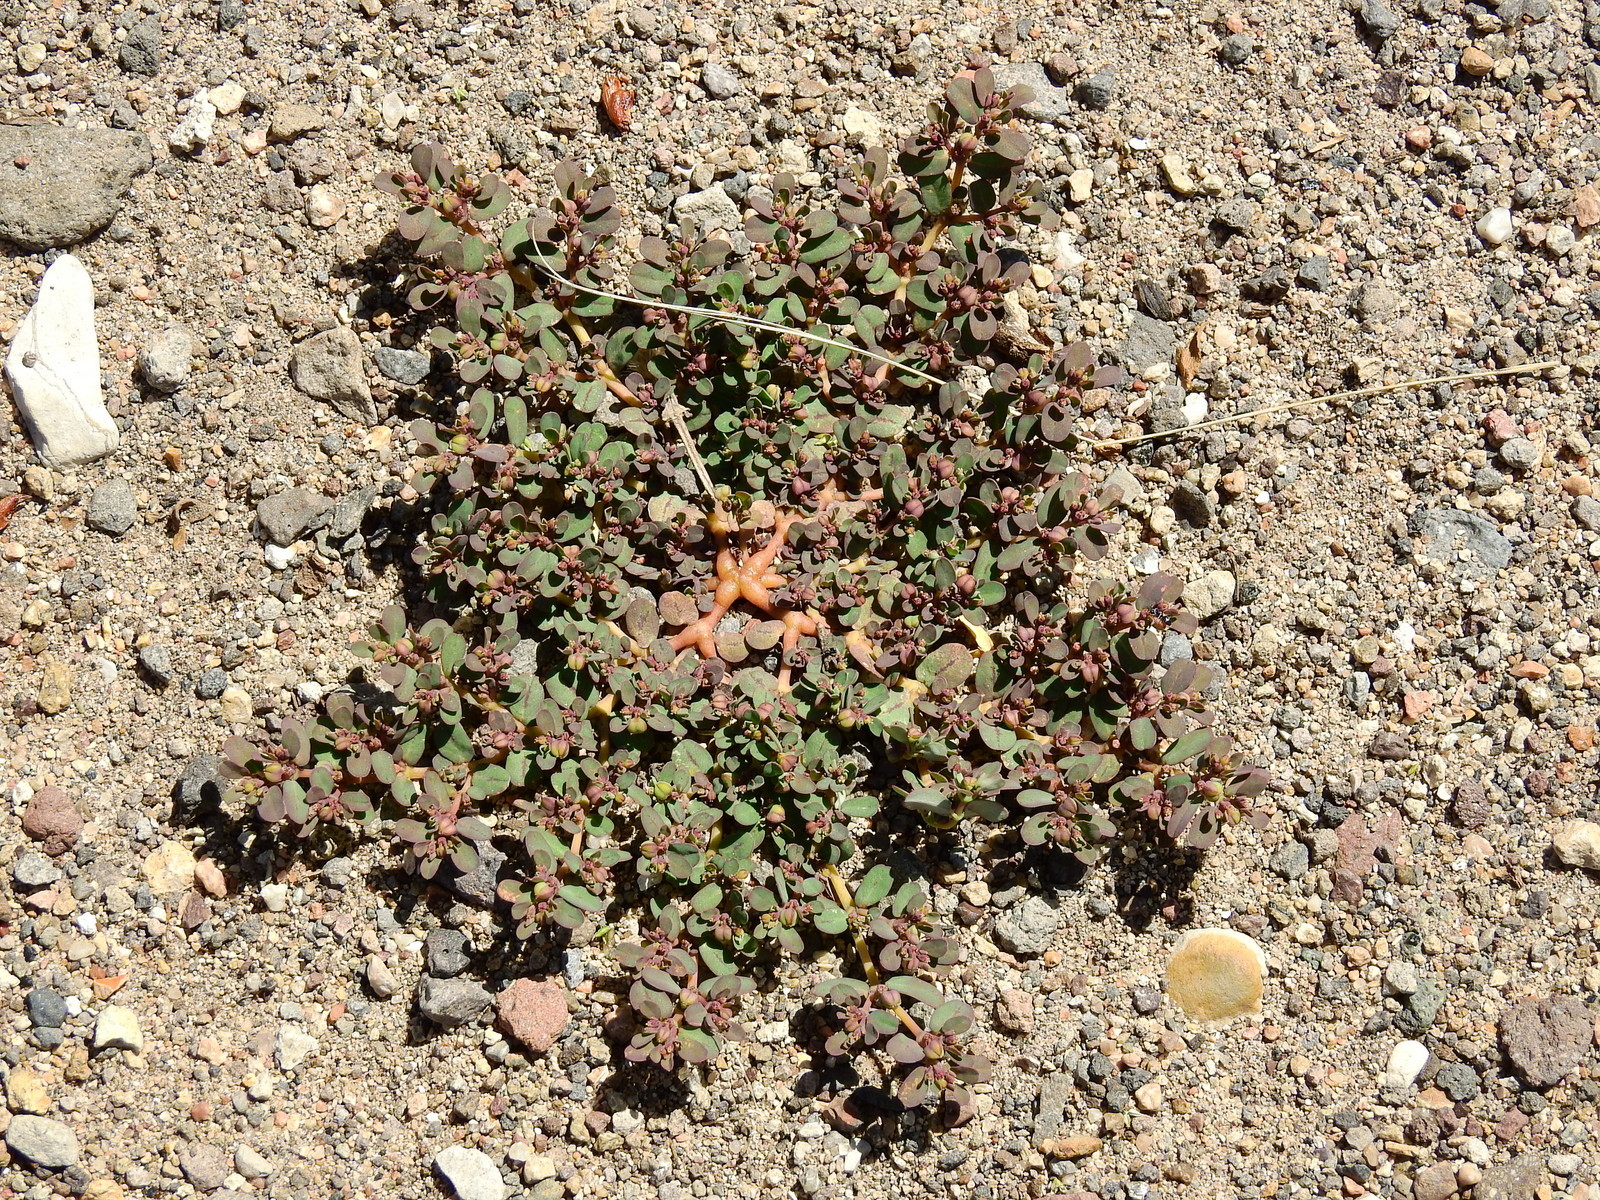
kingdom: Plantae
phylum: Tracheophyta
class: Magnoliopsida
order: Malpighiales
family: Euphorbiaceae
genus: Euphorbia
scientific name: Euphorbia klotzschii
